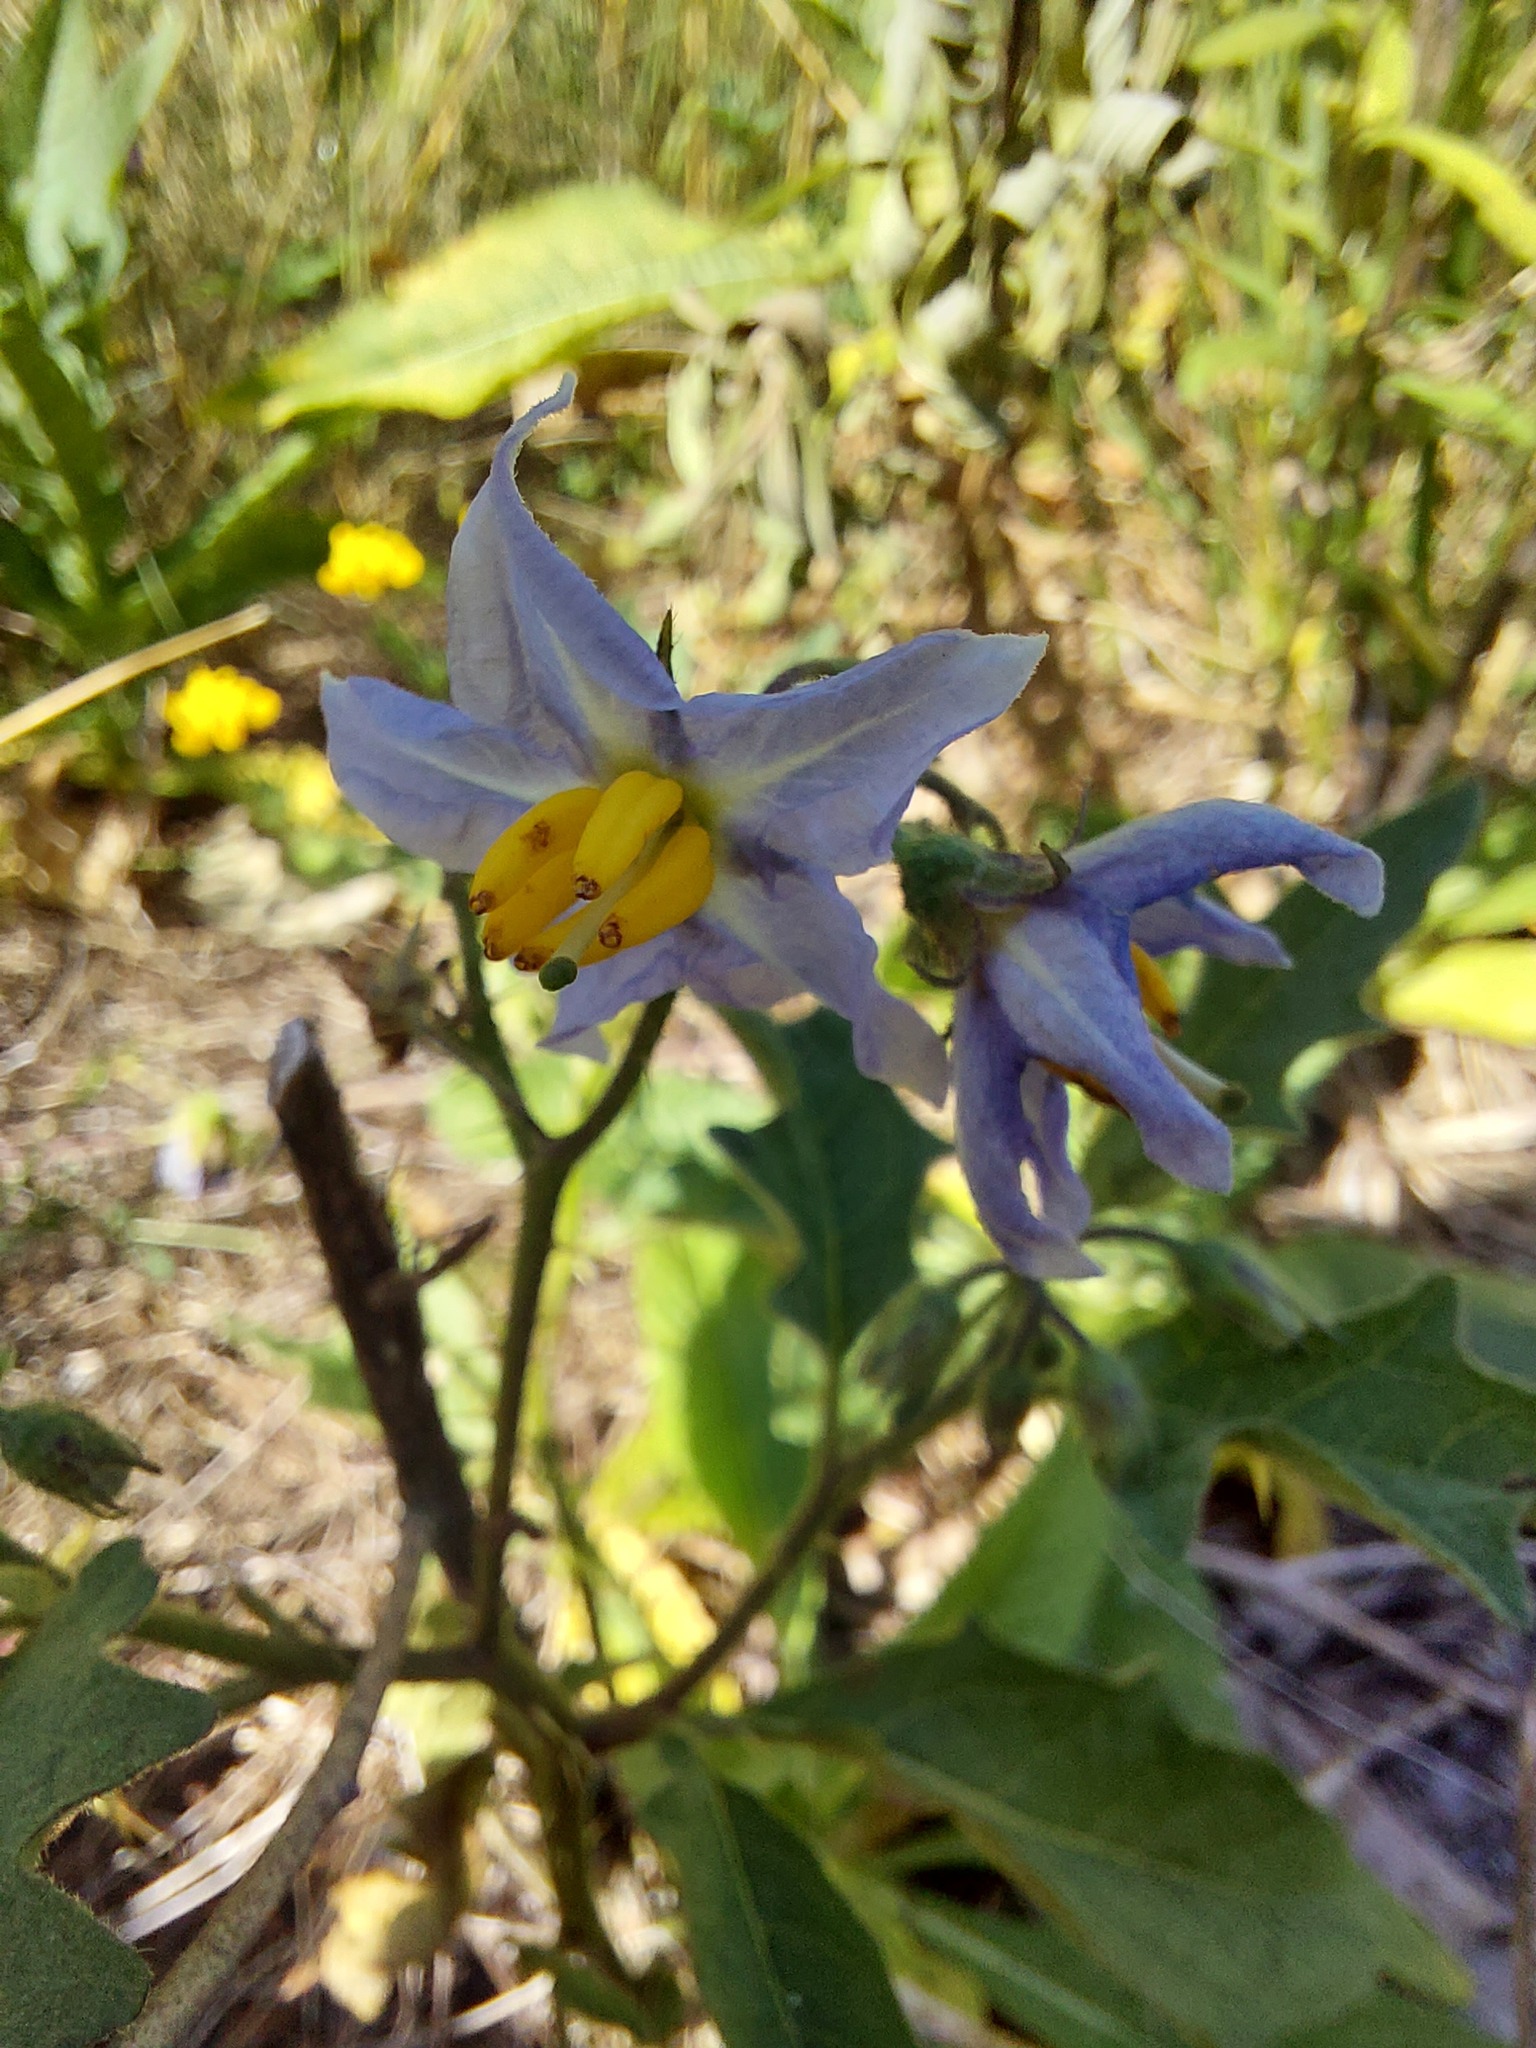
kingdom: Plantae
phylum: Tracheophyta
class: Magnoliopsida
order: Solanales
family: Solanaceae
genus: Solanum
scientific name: Solanum carolinense
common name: Horse-nettle
